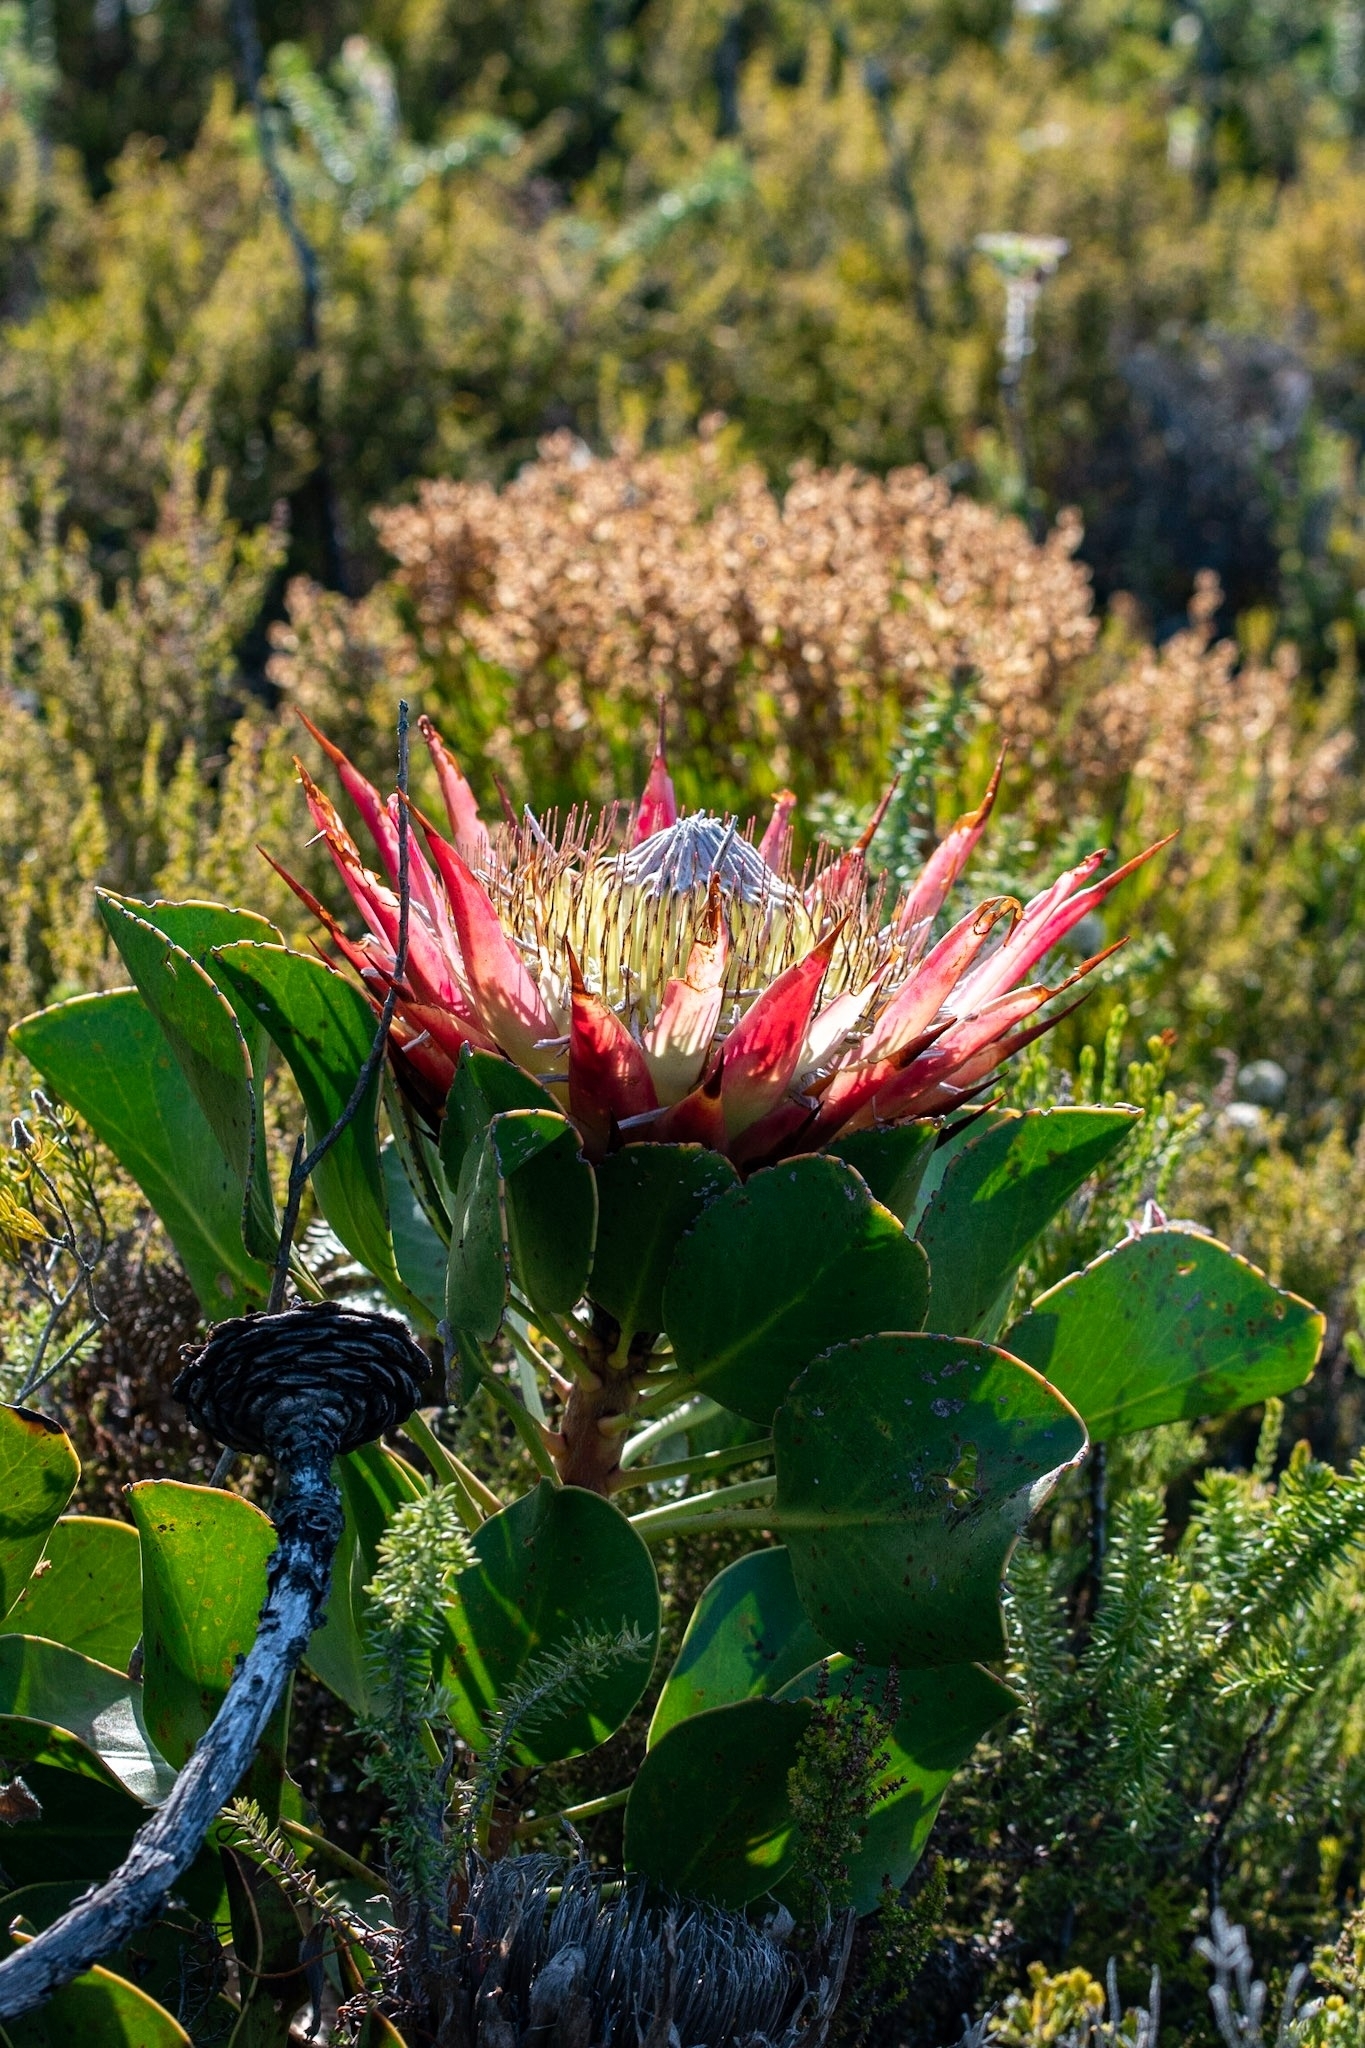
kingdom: Plantae
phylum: Tracheophyta
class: Magnoliopsida
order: Proteales
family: Proteaceae
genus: Protea
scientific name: Protea cynaroides
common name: King protea
